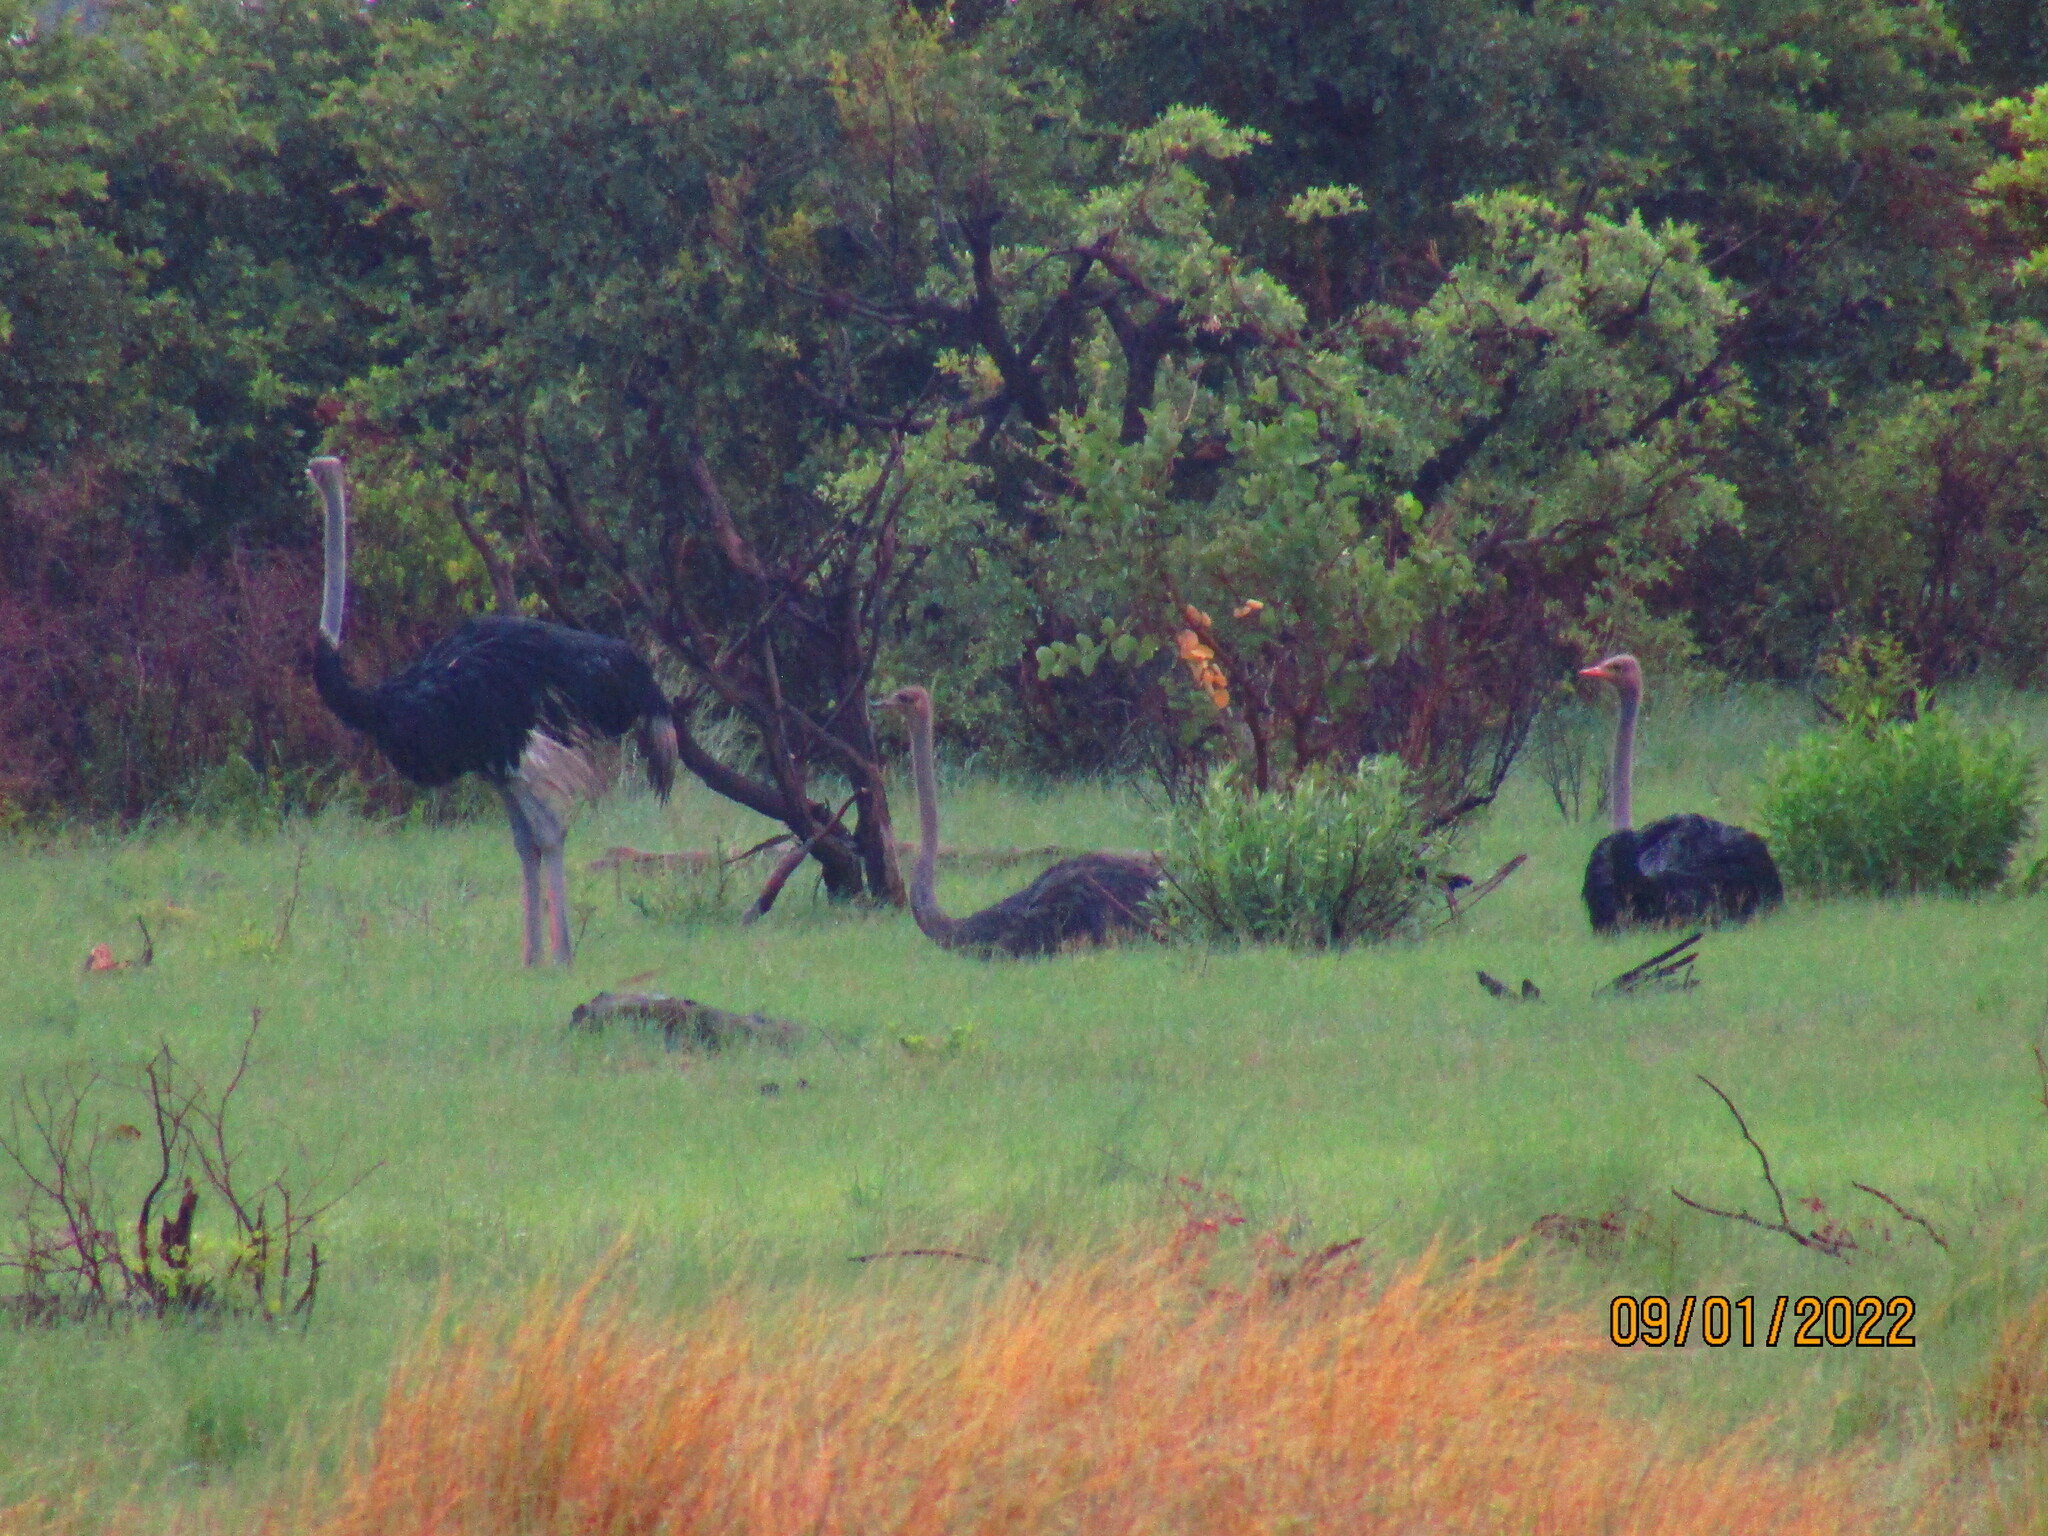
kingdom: Animalia
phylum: Chordata
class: Aves
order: Struthioniformes
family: Struthionidae
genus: Struthio
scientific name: Struthio camelus
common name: Common ostrich
